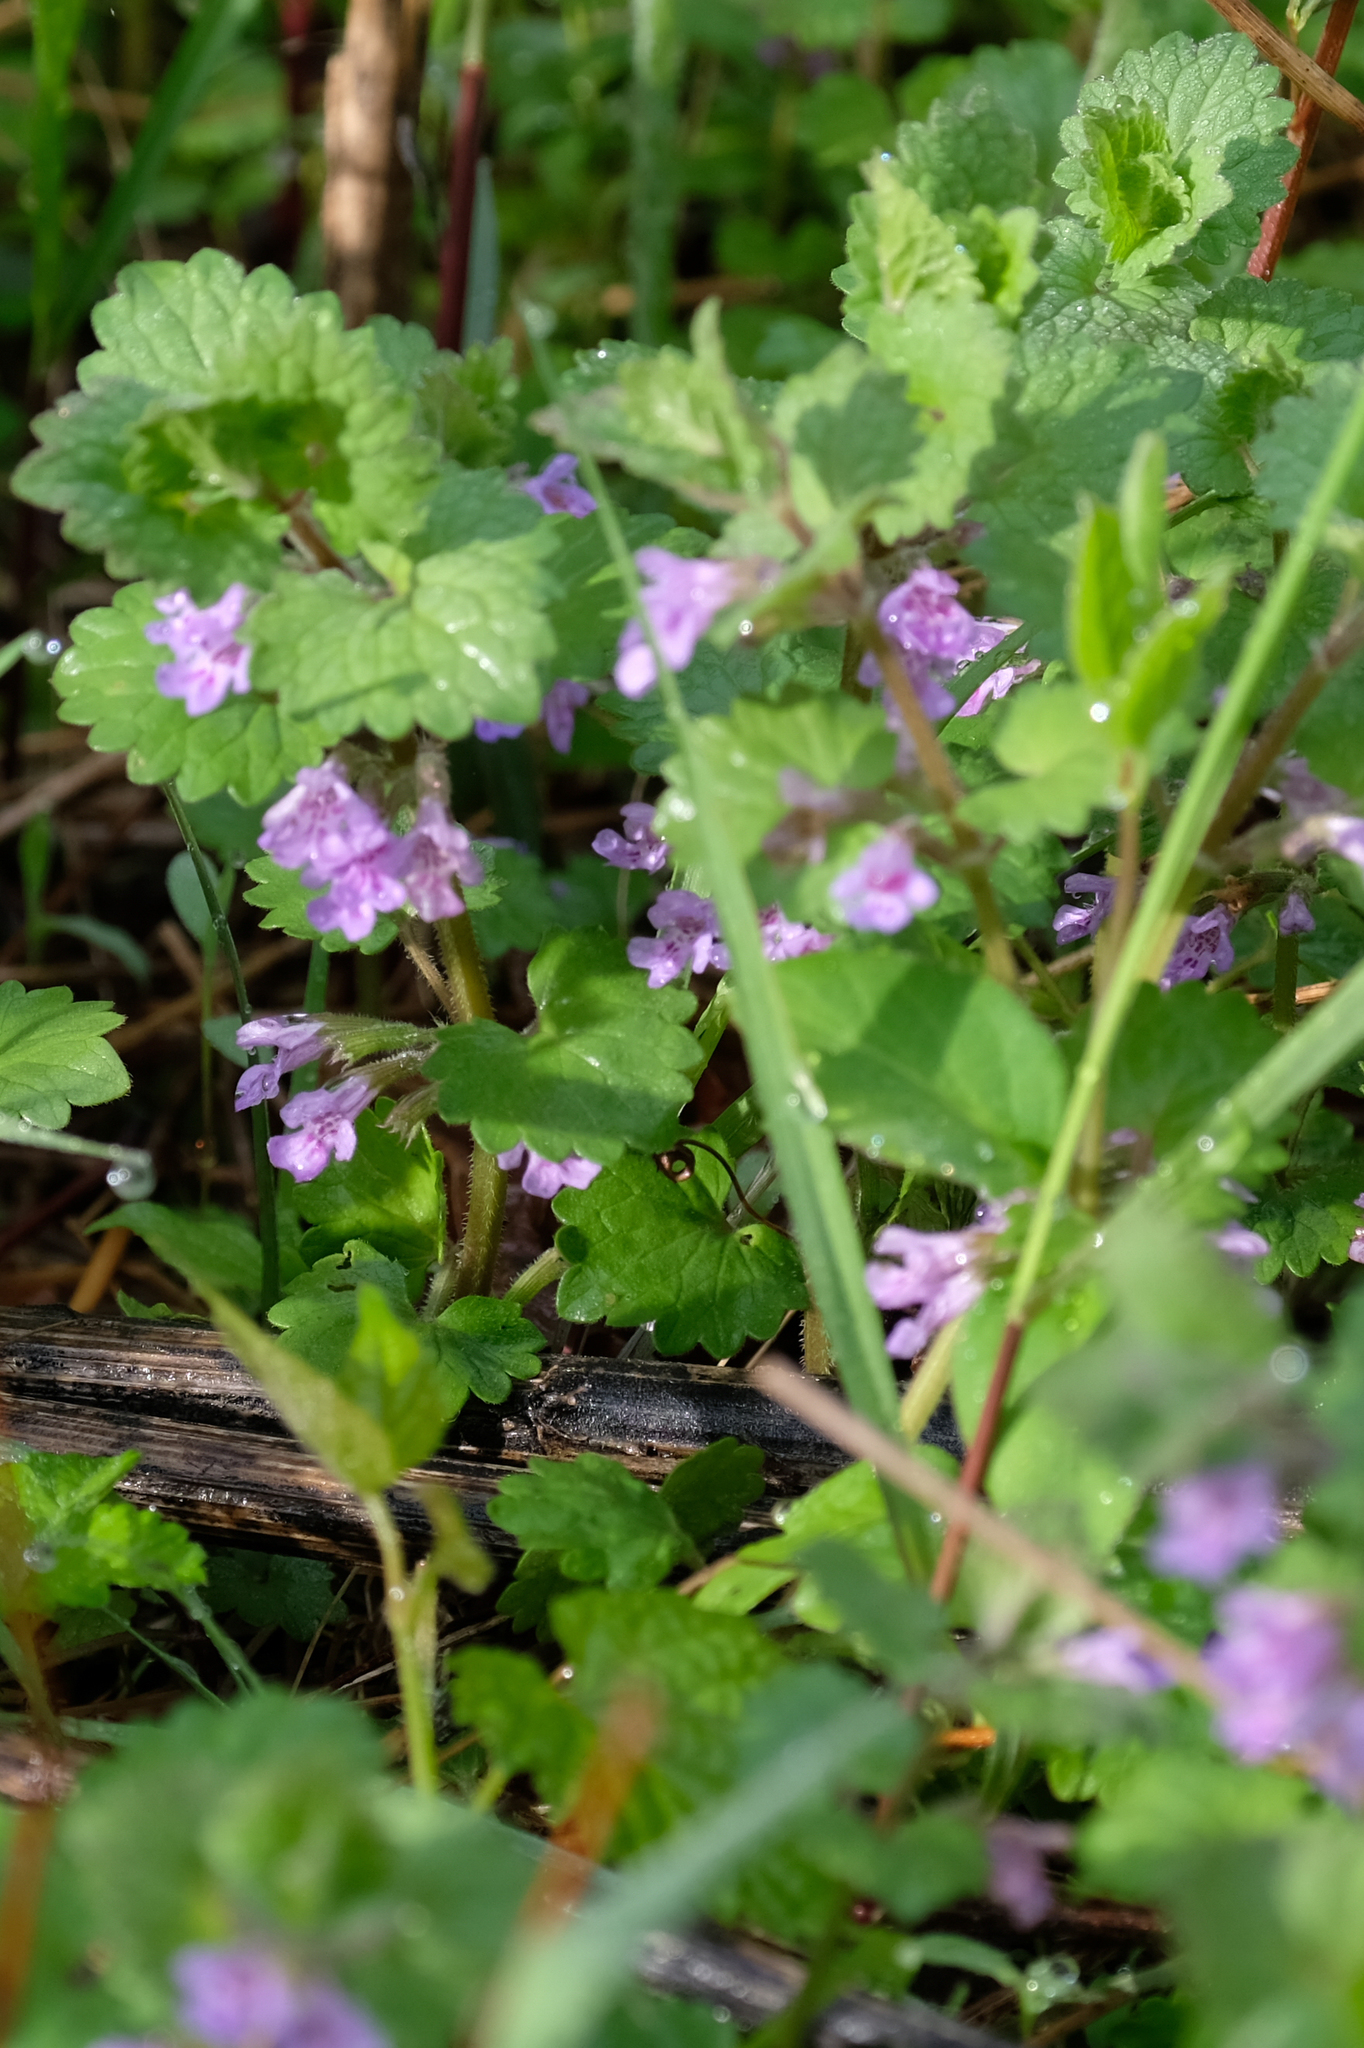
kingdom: Plantae
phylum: Tracheophyta
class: Magnoliopsida
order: Lamiales
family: Lamiaceae
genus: Glechoma
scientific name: Glechoma hederacea
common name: Ground ivy
